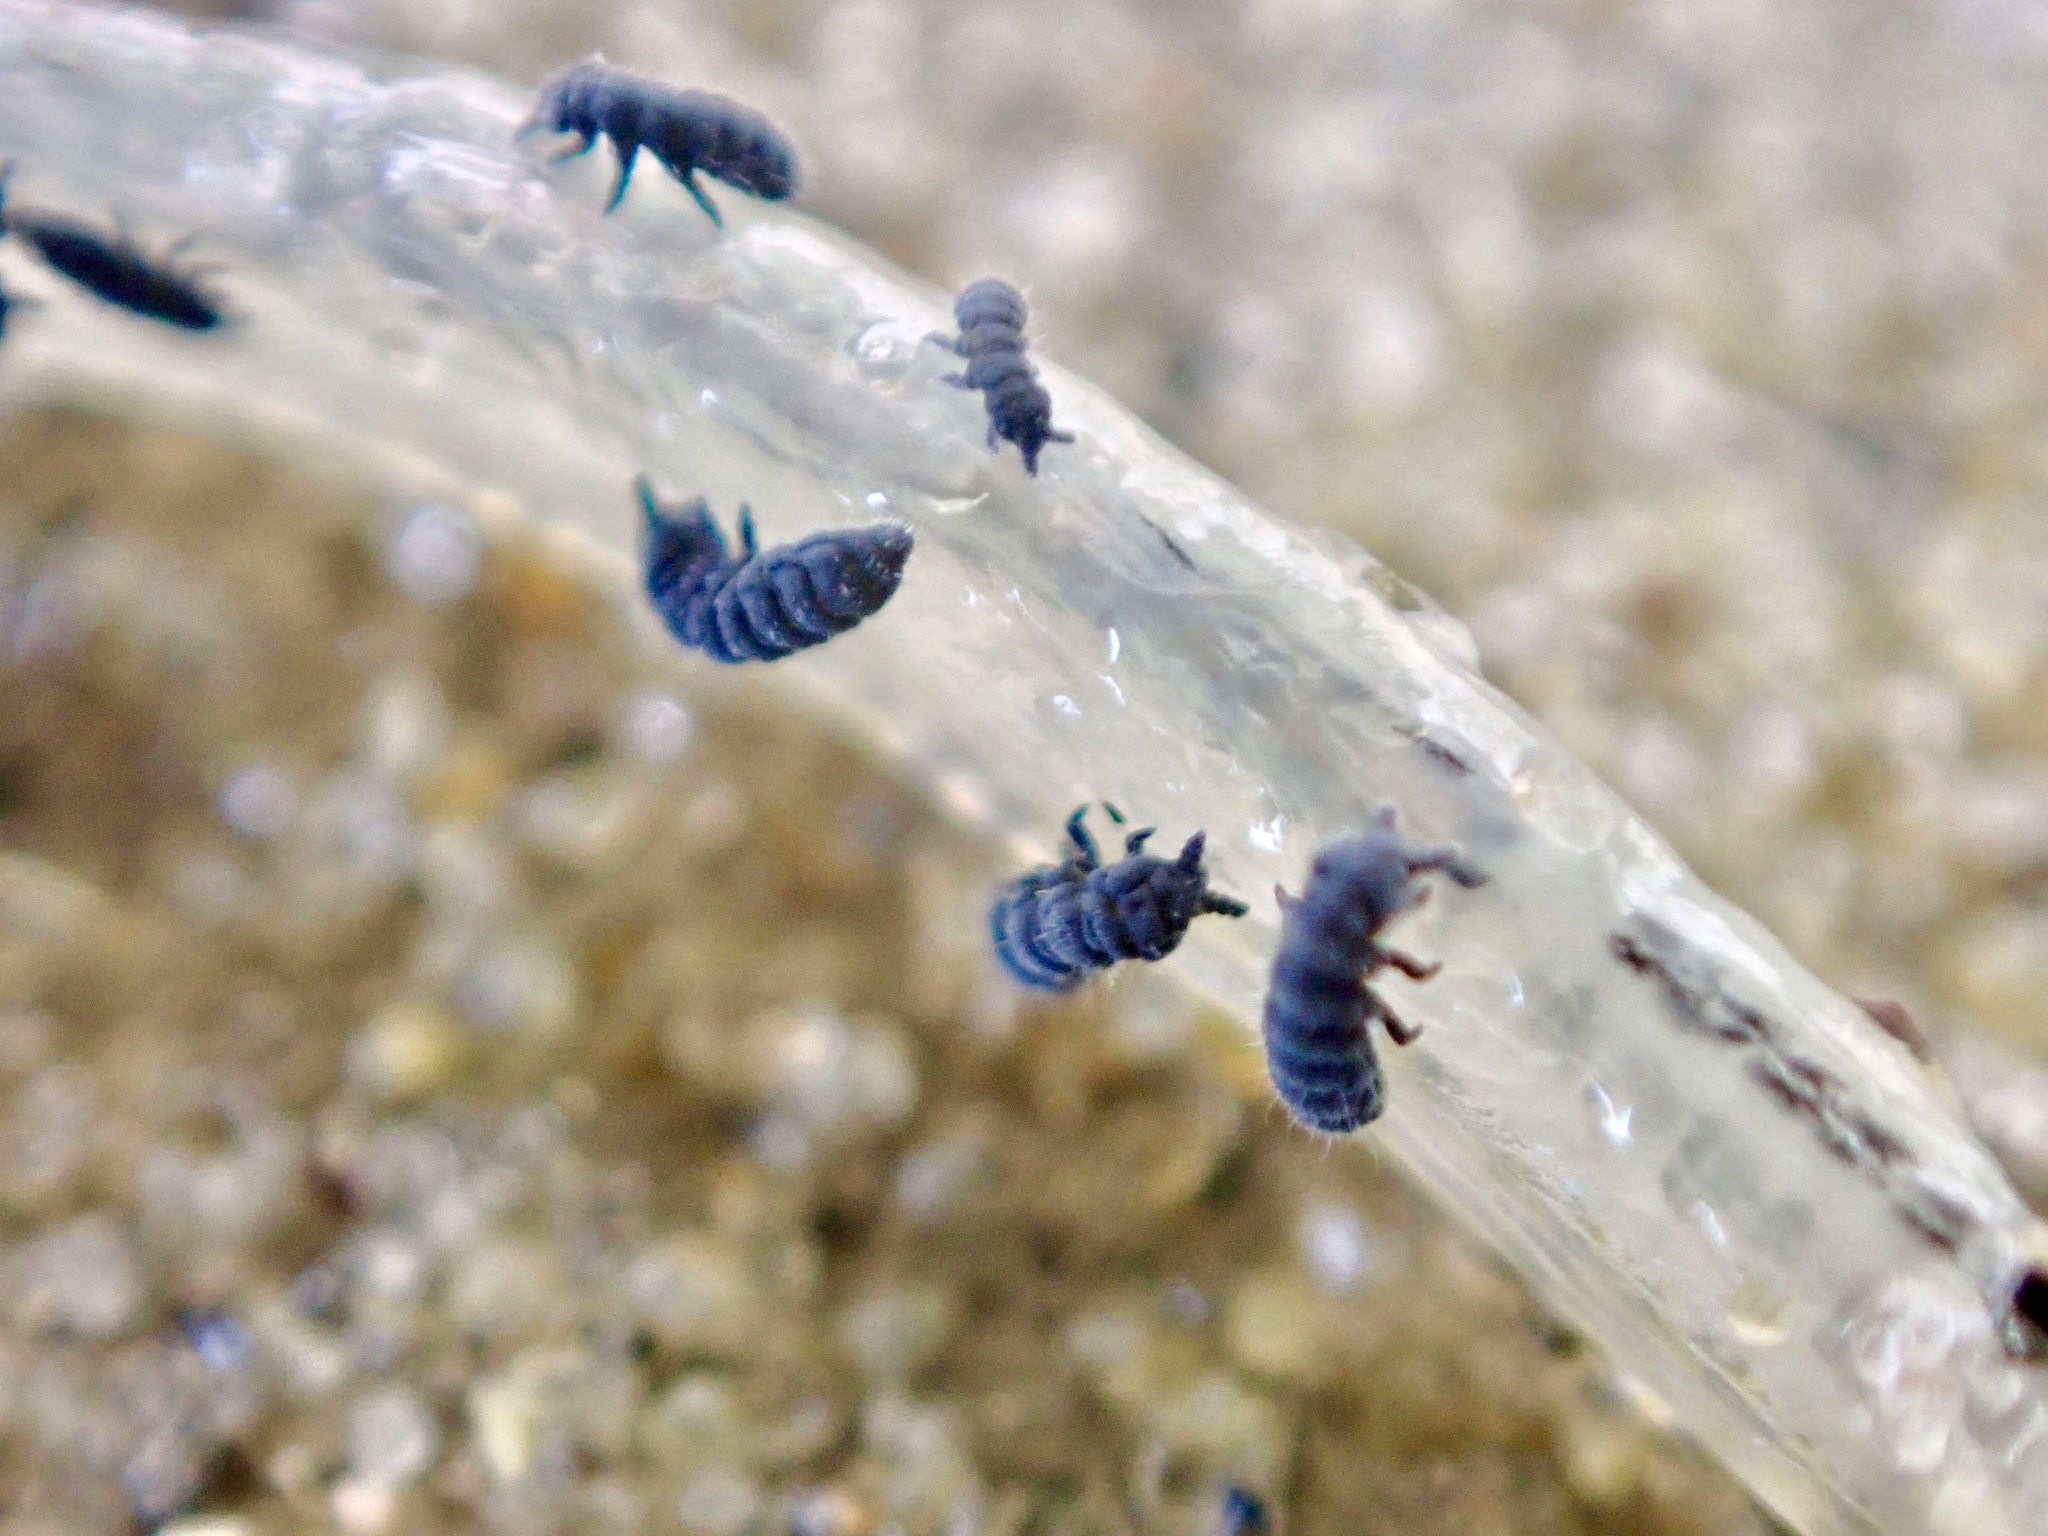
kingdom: Animalia
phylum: Arthropoda
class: Collembola
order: Poduromorpha
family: Neanuridae
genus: Anurida
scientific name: Anurida maritima
